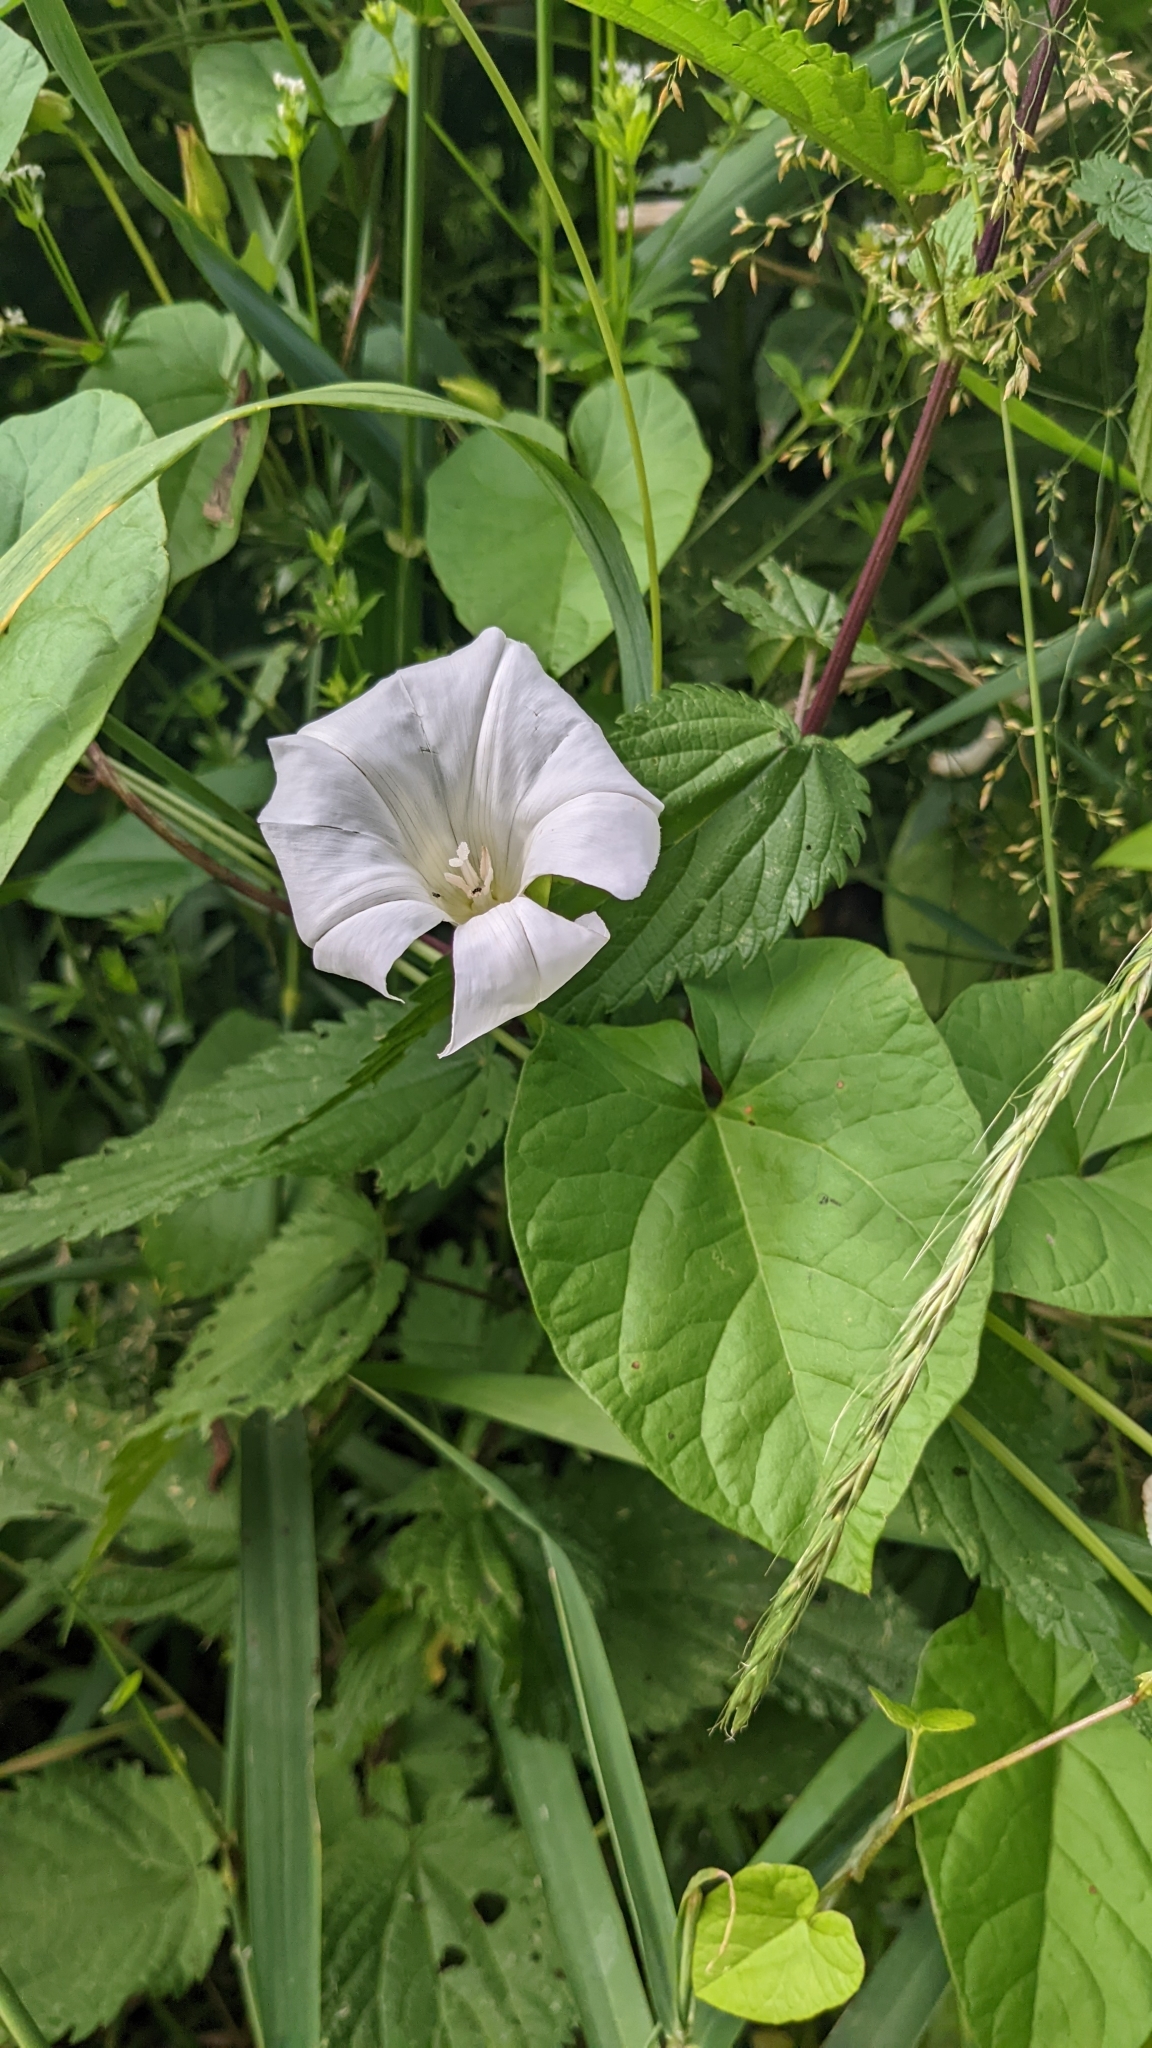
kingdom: Plantae
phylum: Tracheophyta
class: Magnoliopsida
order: Solanales
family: Convolvulaceae
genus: Calystegia
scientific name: Calystegia sepium
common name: Hedge bindweed
